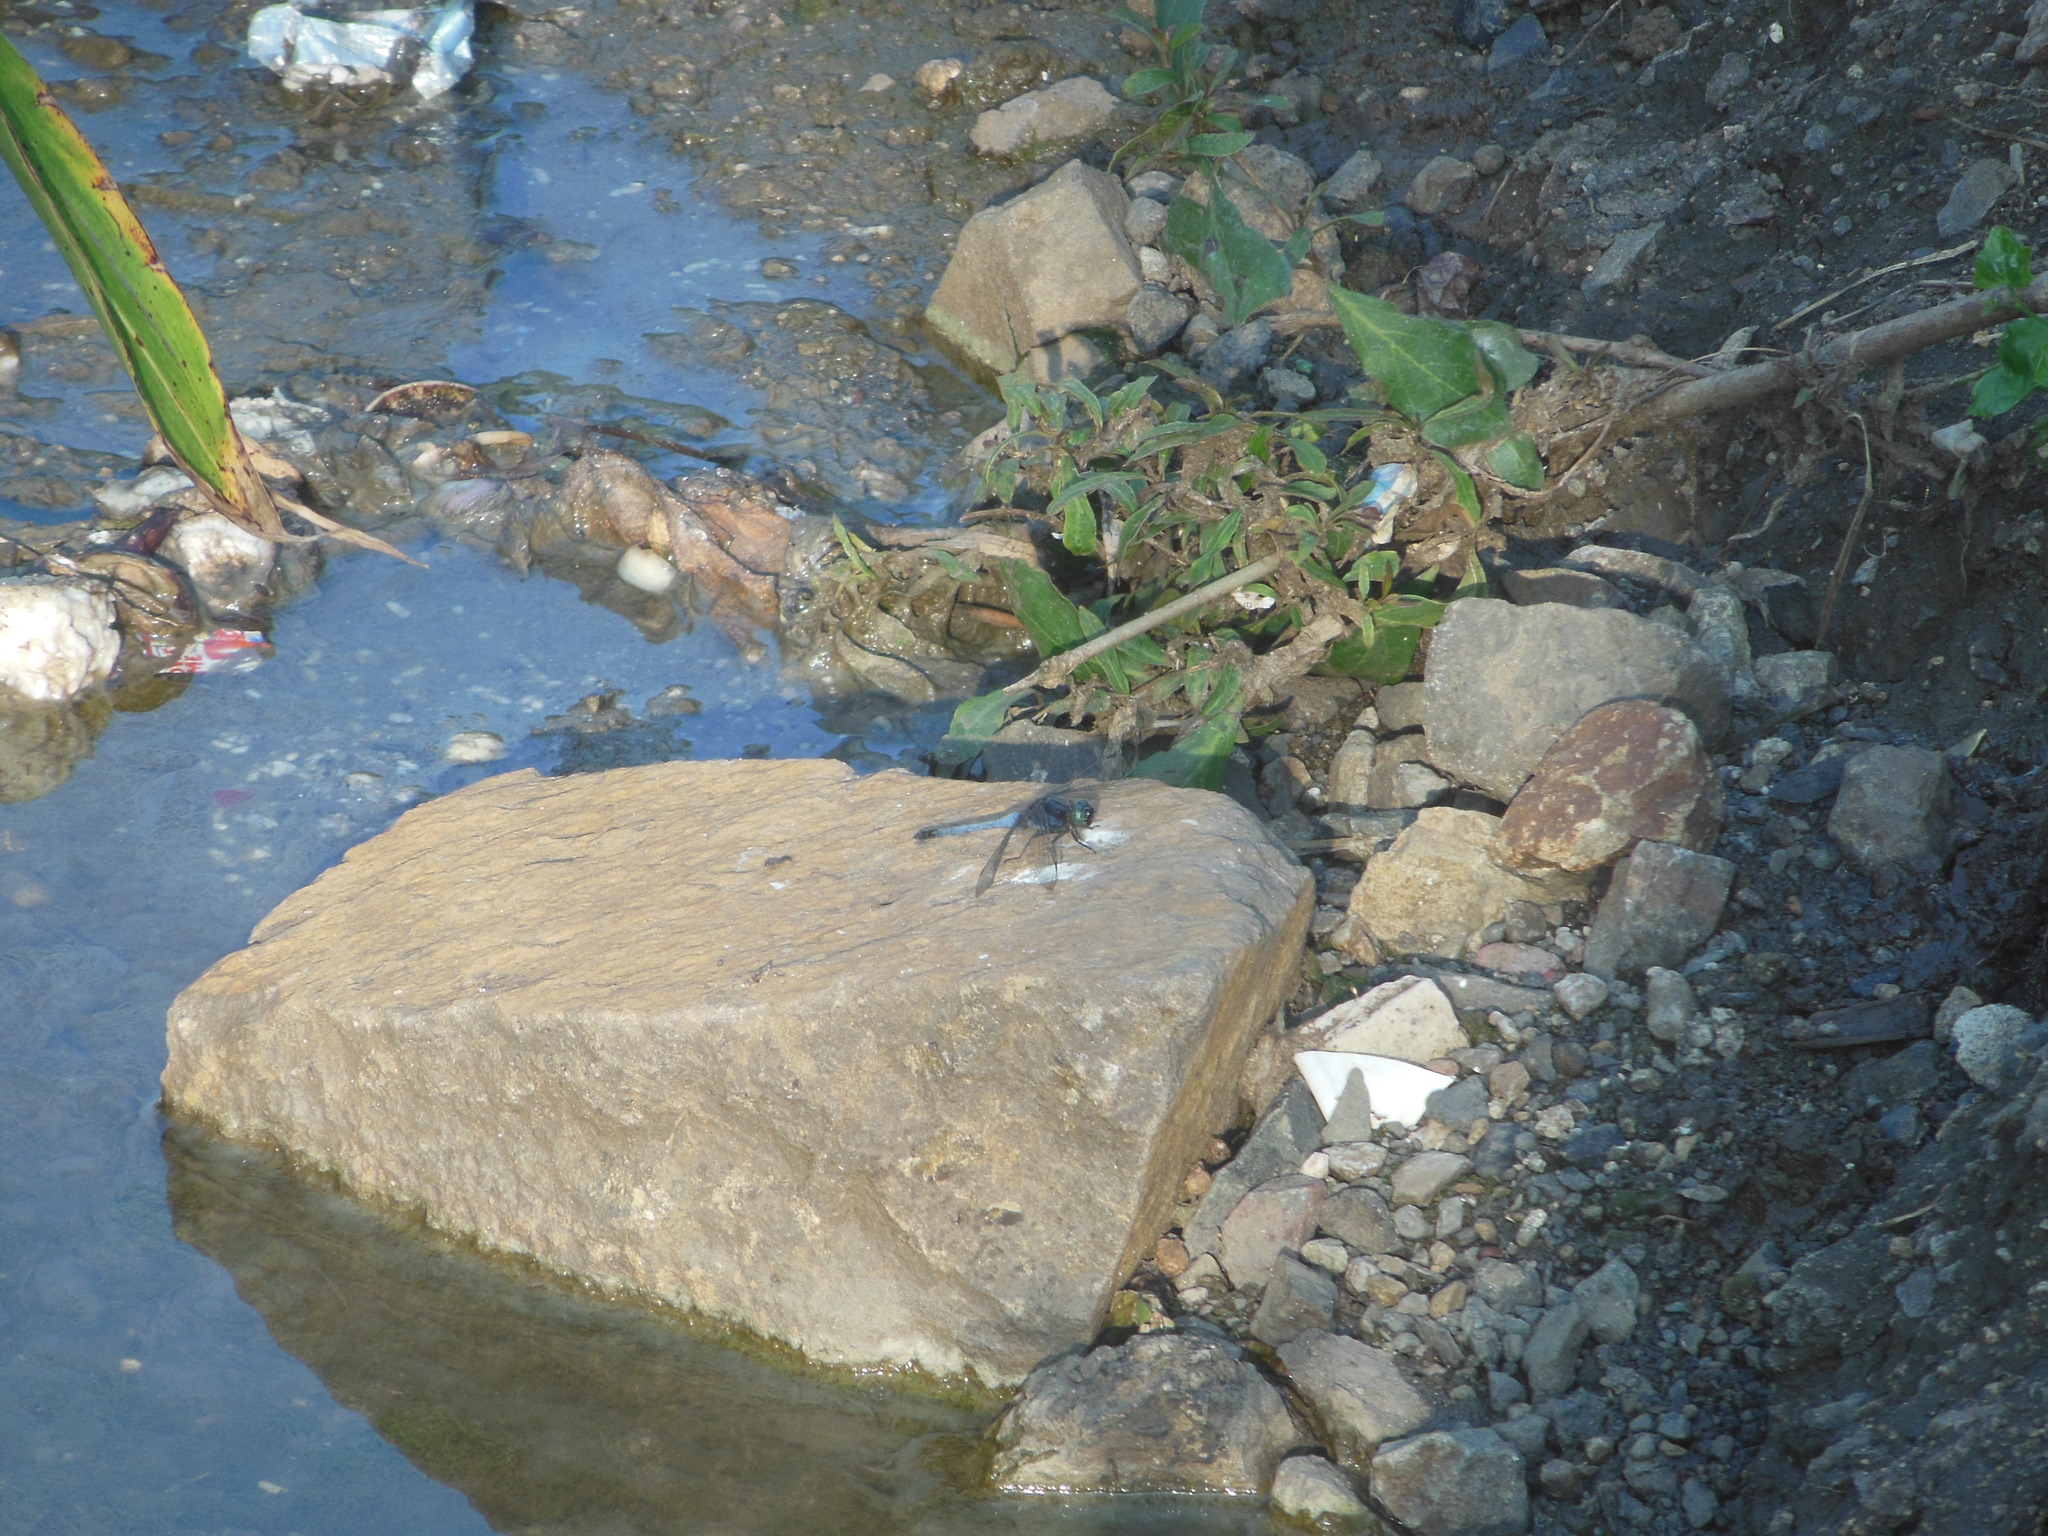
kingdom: Animalia
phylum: Arthropoda
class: Insecta
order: Odonata
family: Libellulidae
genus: Orthetrum
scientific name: Orthetrum glaucum
